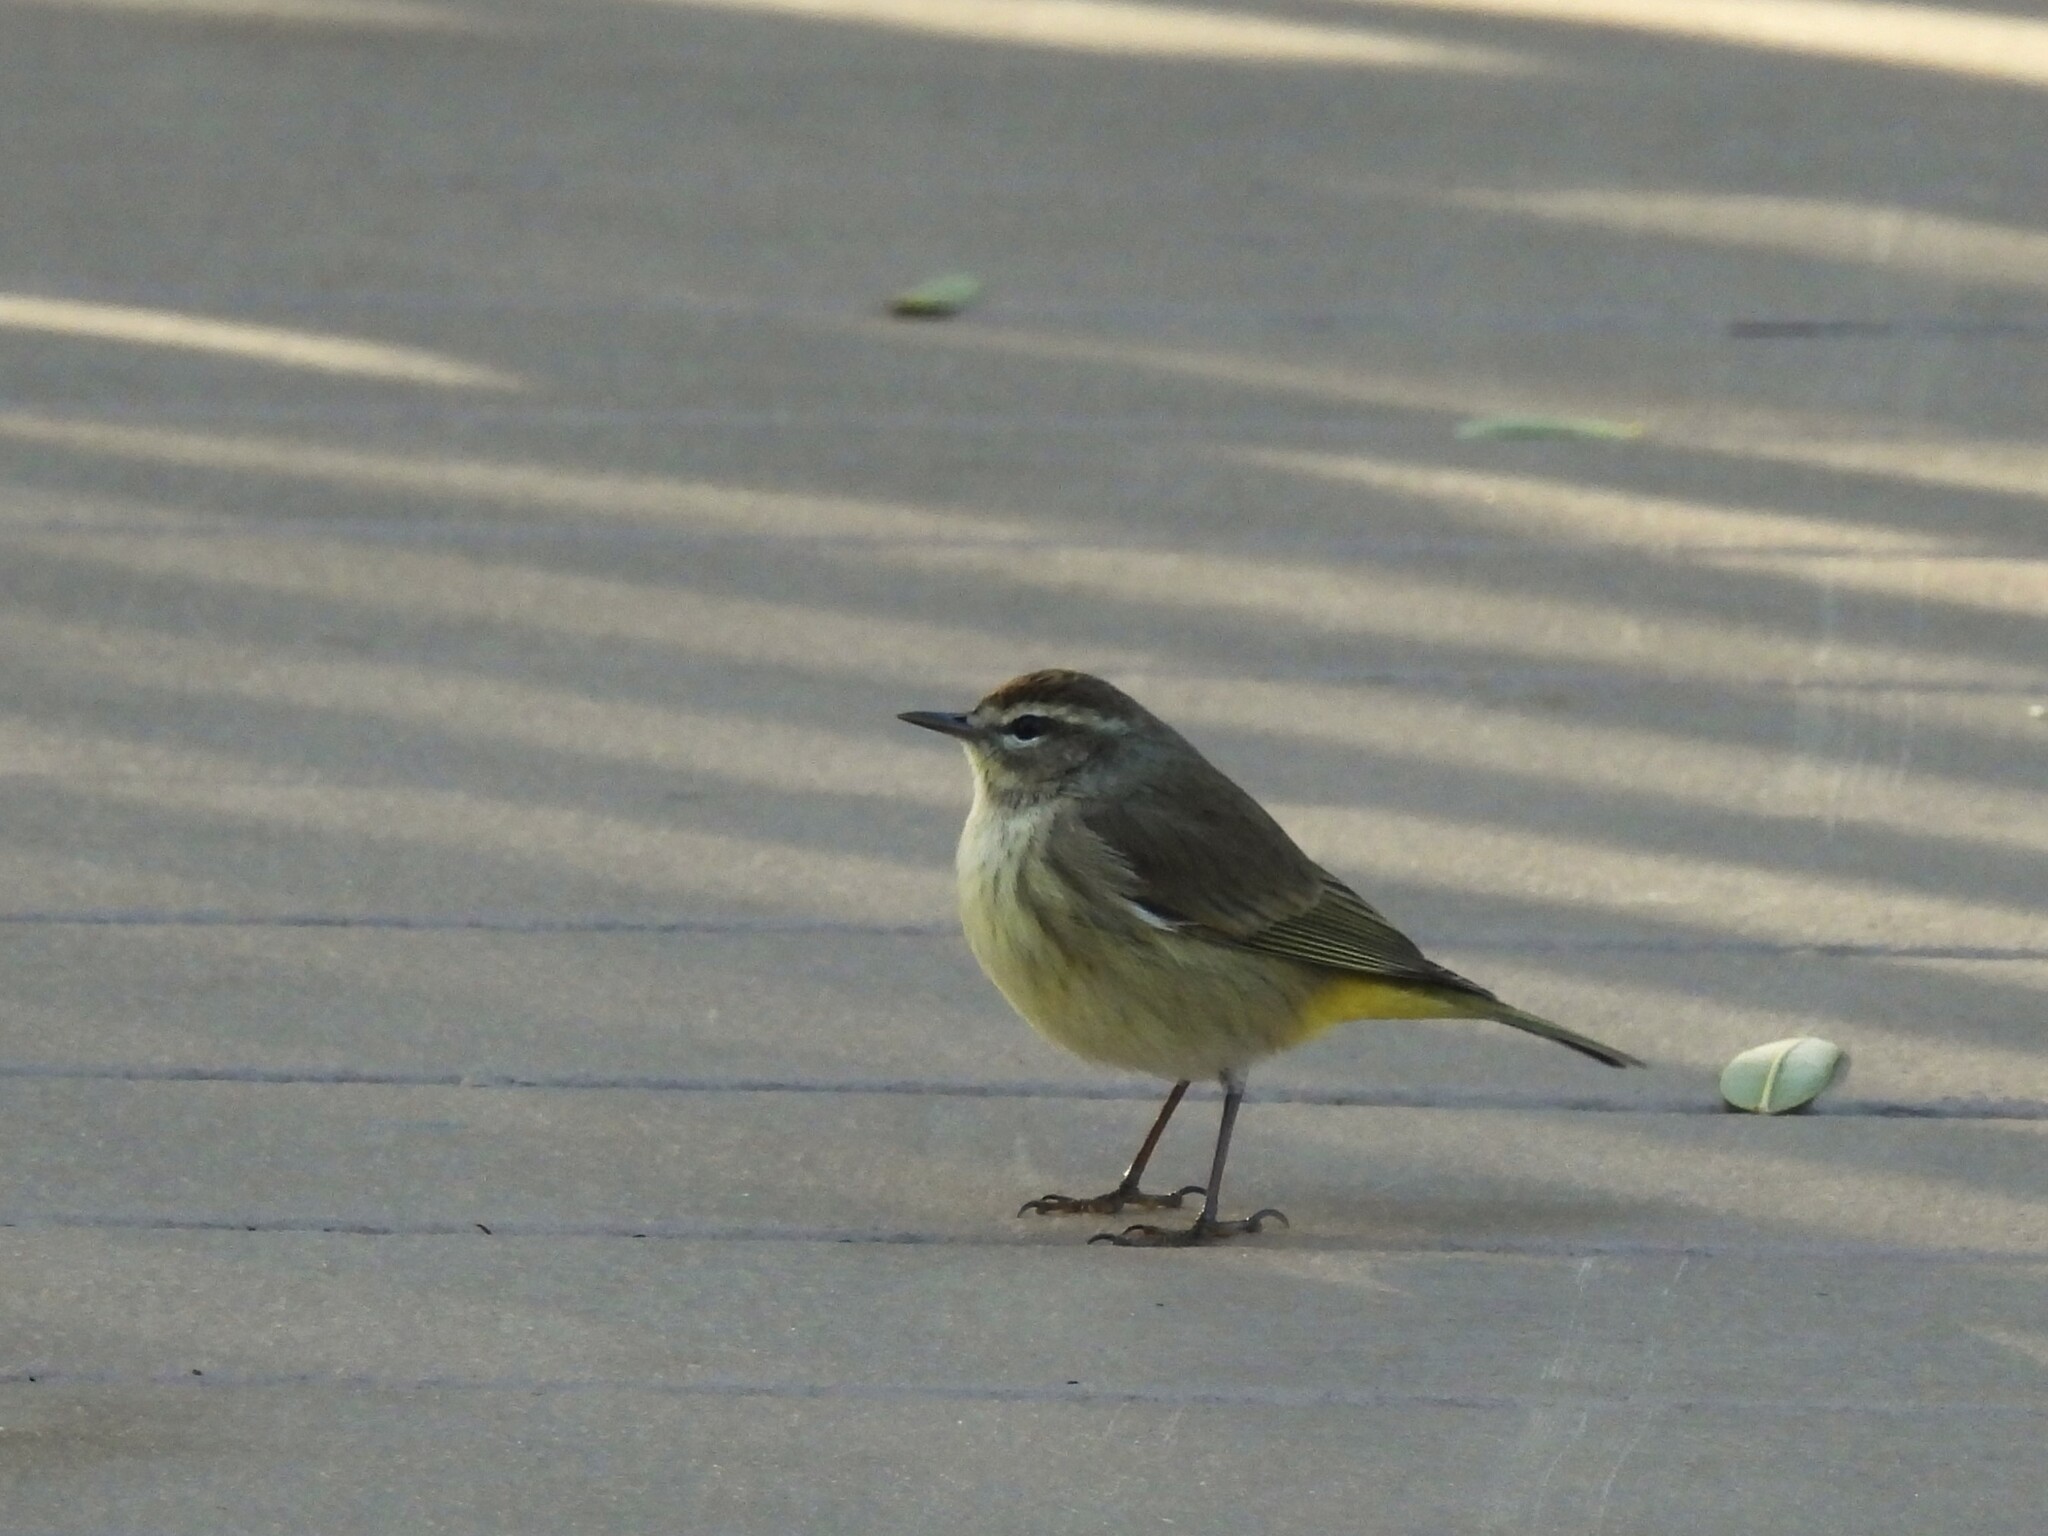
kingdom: Animalia
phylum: Chordata
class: Aves
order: Passeriformes
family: Parulidae
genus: Setophaga
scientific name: Setophaga palmarum
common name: Palm warbler
